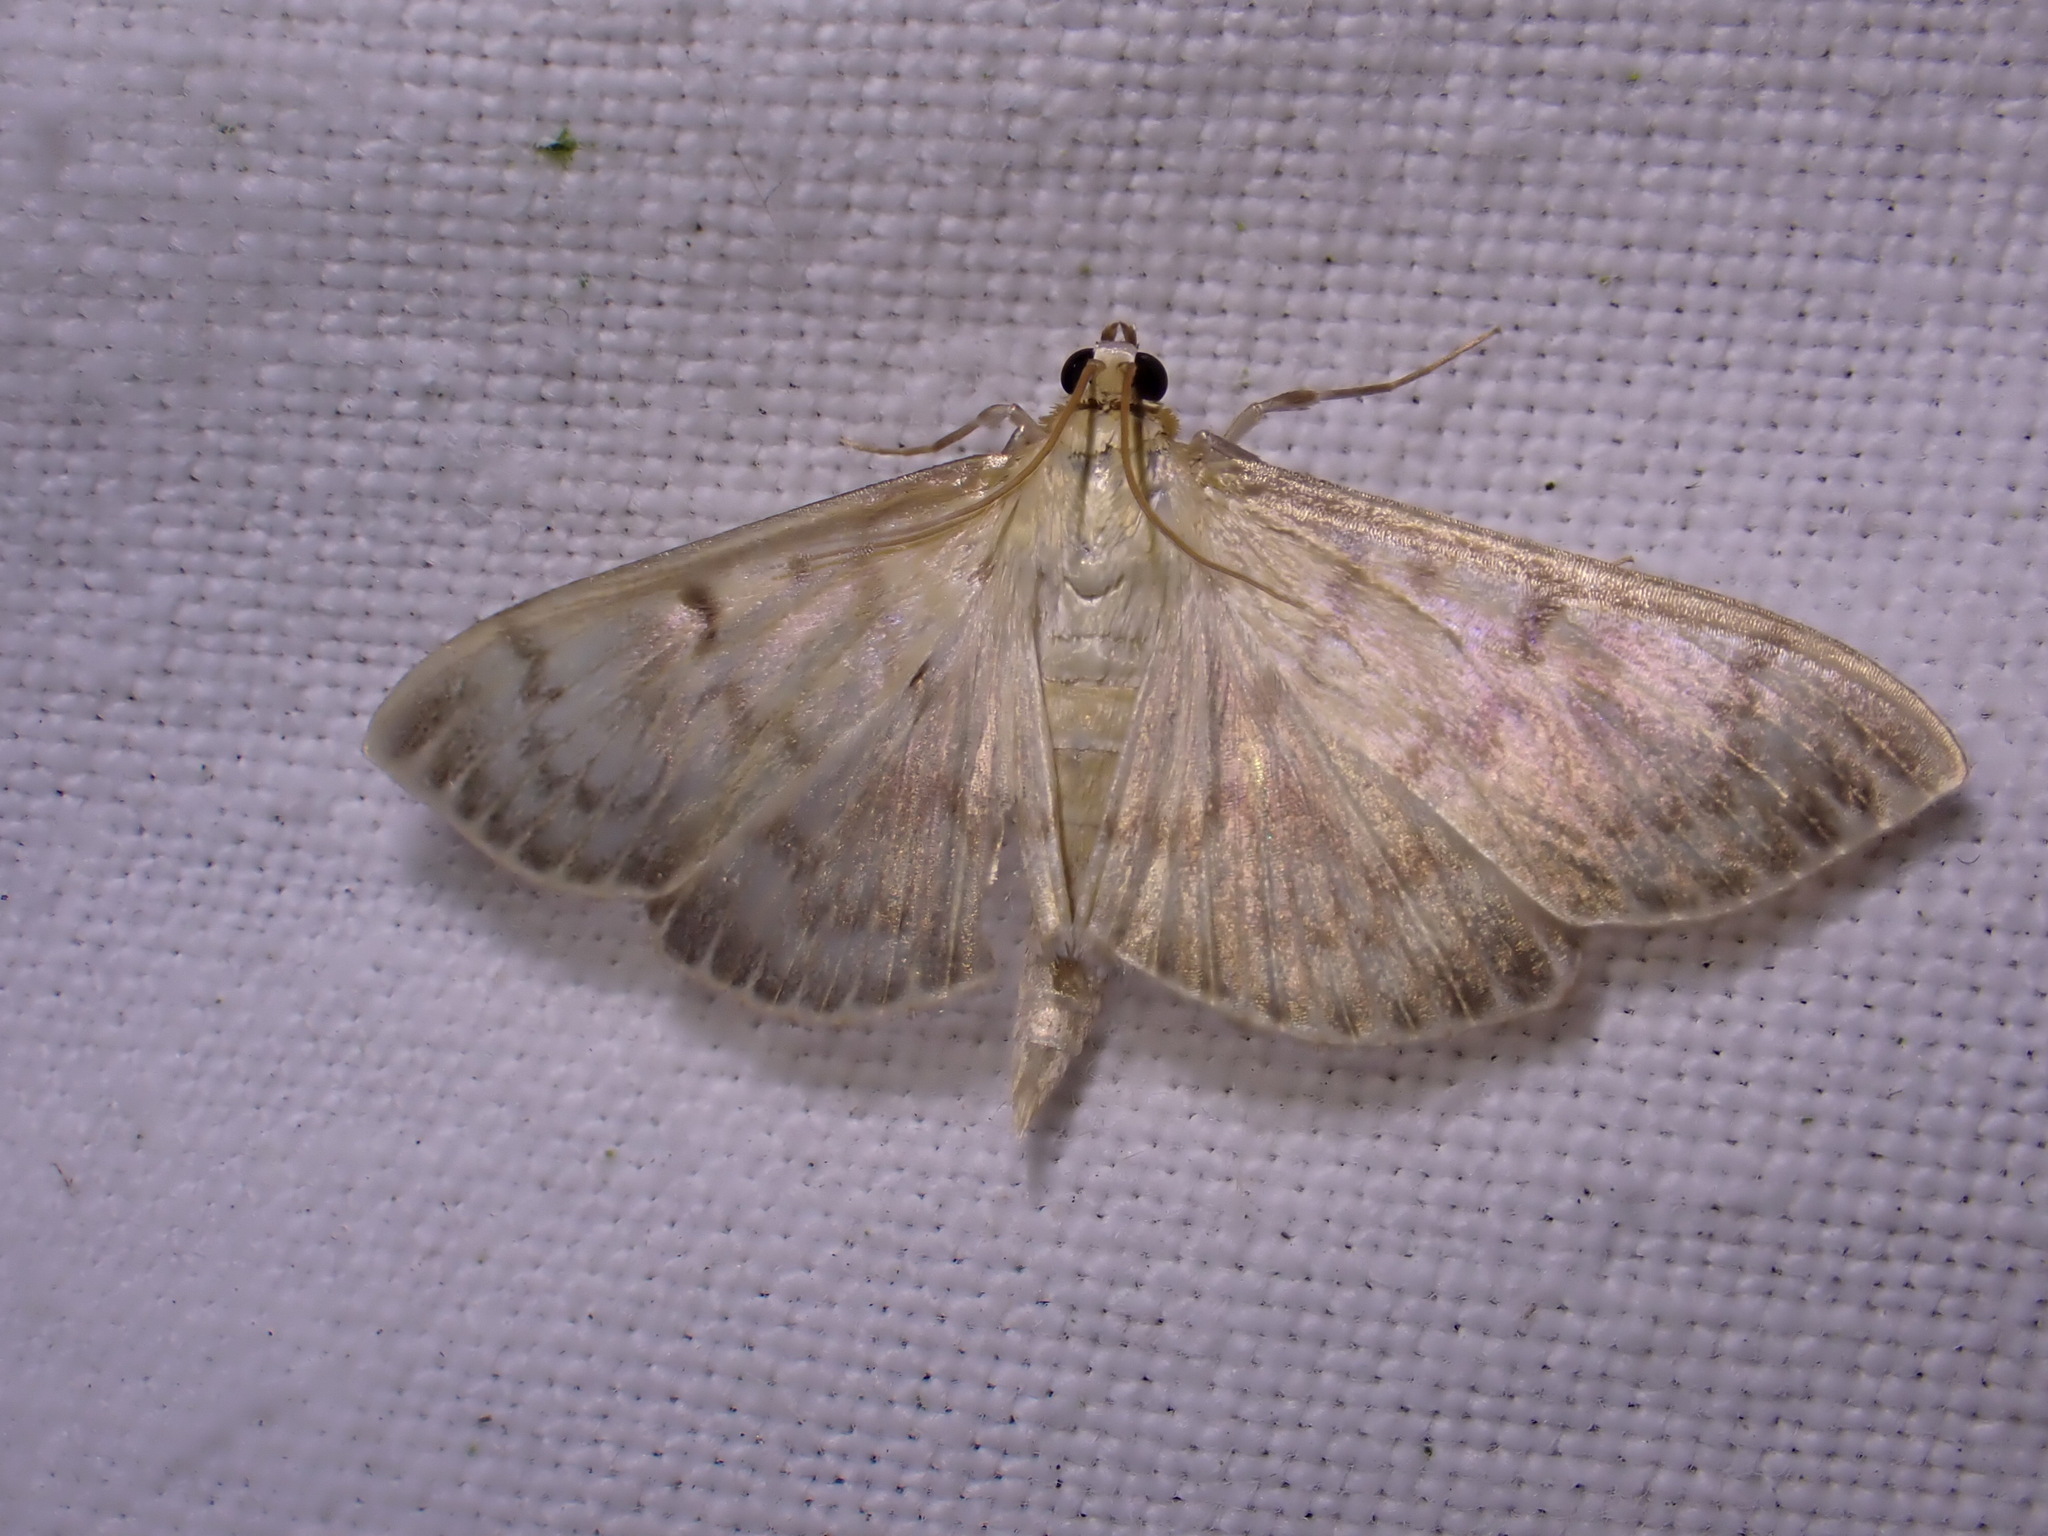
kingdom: Animalia
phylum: Arthropoda
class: Insecta
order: Lepidoptera
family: Crambidae
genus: Patania
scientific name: Patania ruralis
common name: Mother of pearl
